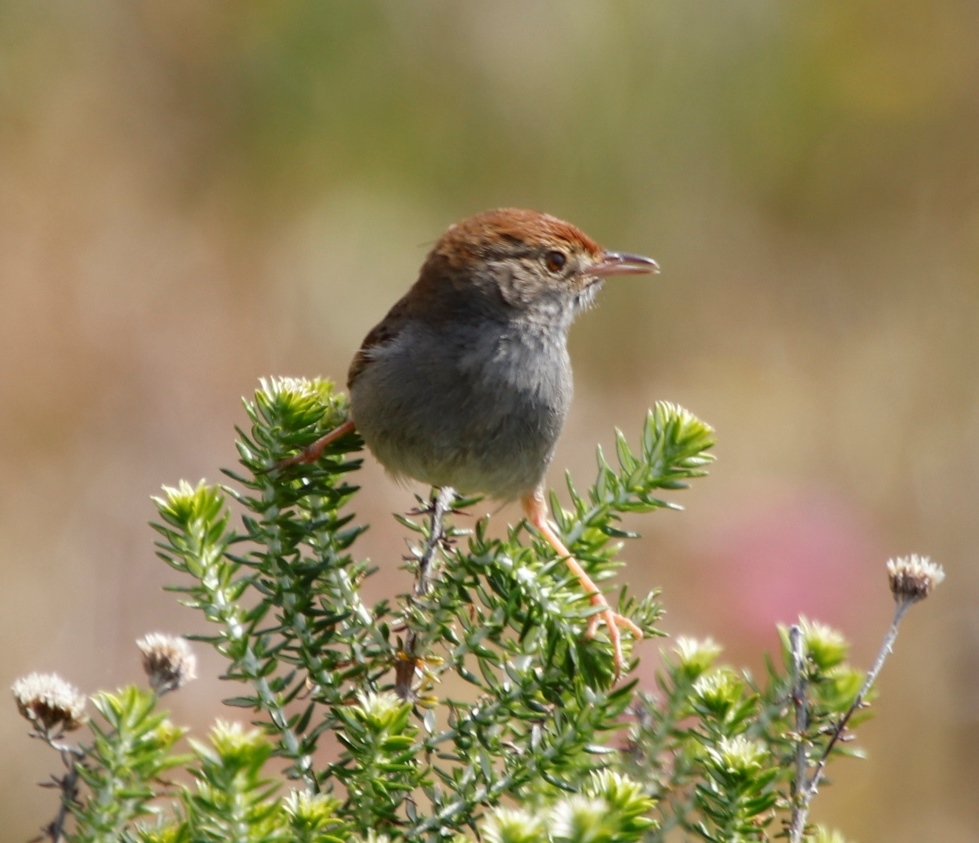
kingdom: Animalia
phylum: Chordata
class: Aves
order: Passeriformes
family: Cisticolidae
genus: Cisticola
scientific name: Cisticola fulvicapilla
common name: Neddicky
